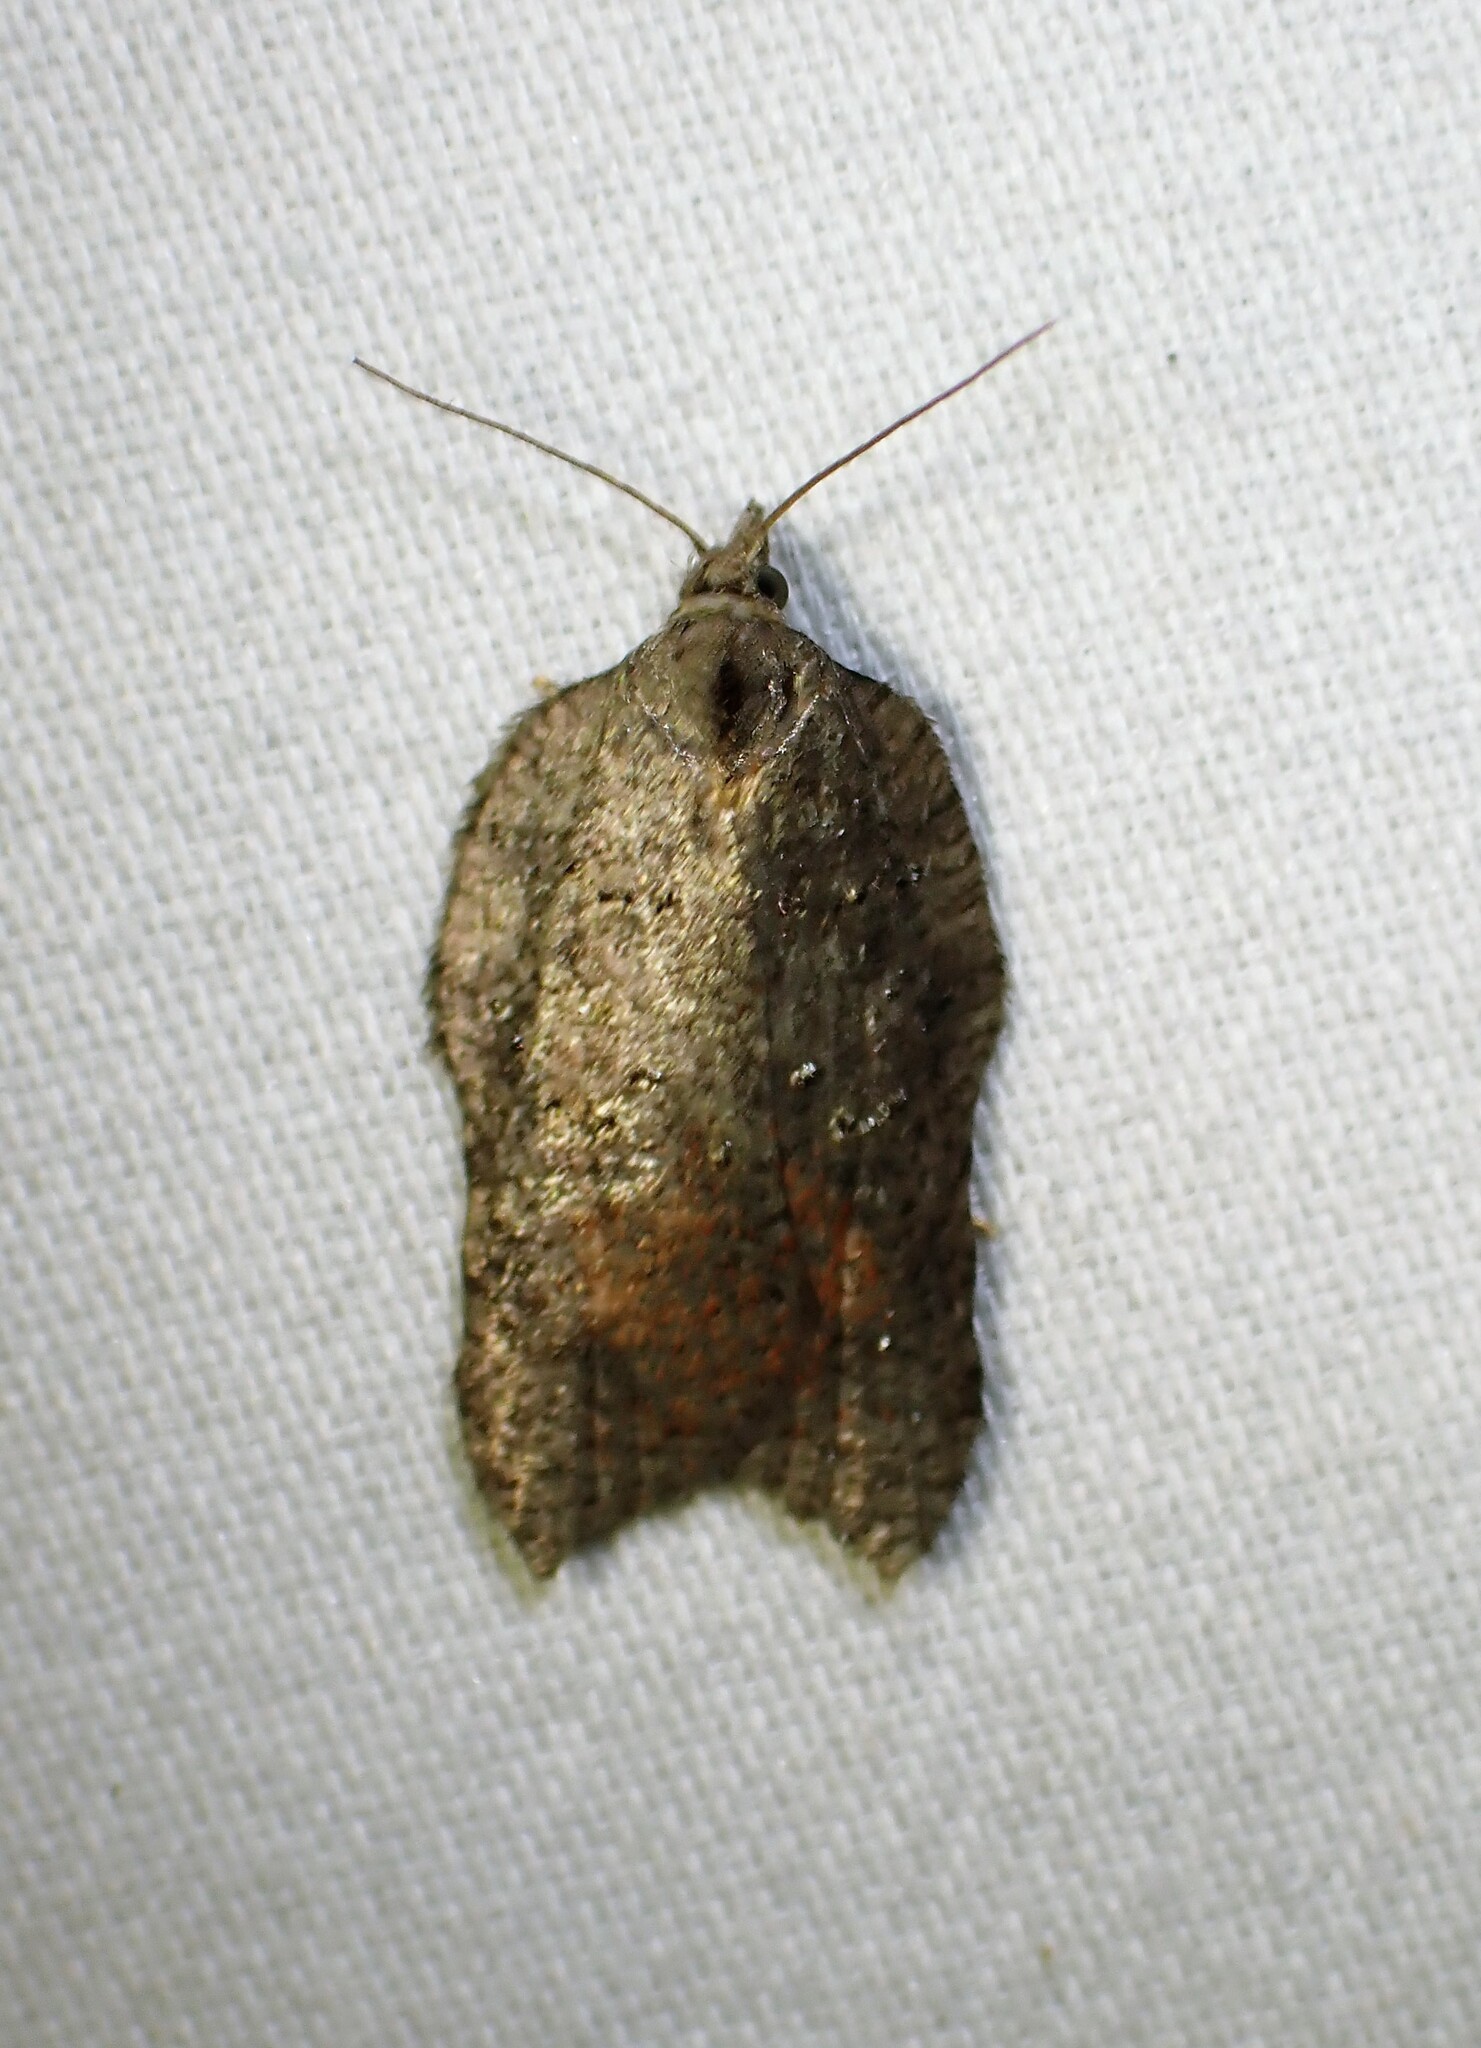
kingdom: Animalia
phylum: Arthropoda
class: Insecta
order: Lepidoptera
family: Tortricidae
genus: Acleris
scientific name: Acleris effractana
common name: Hook-winged tortrix moth
